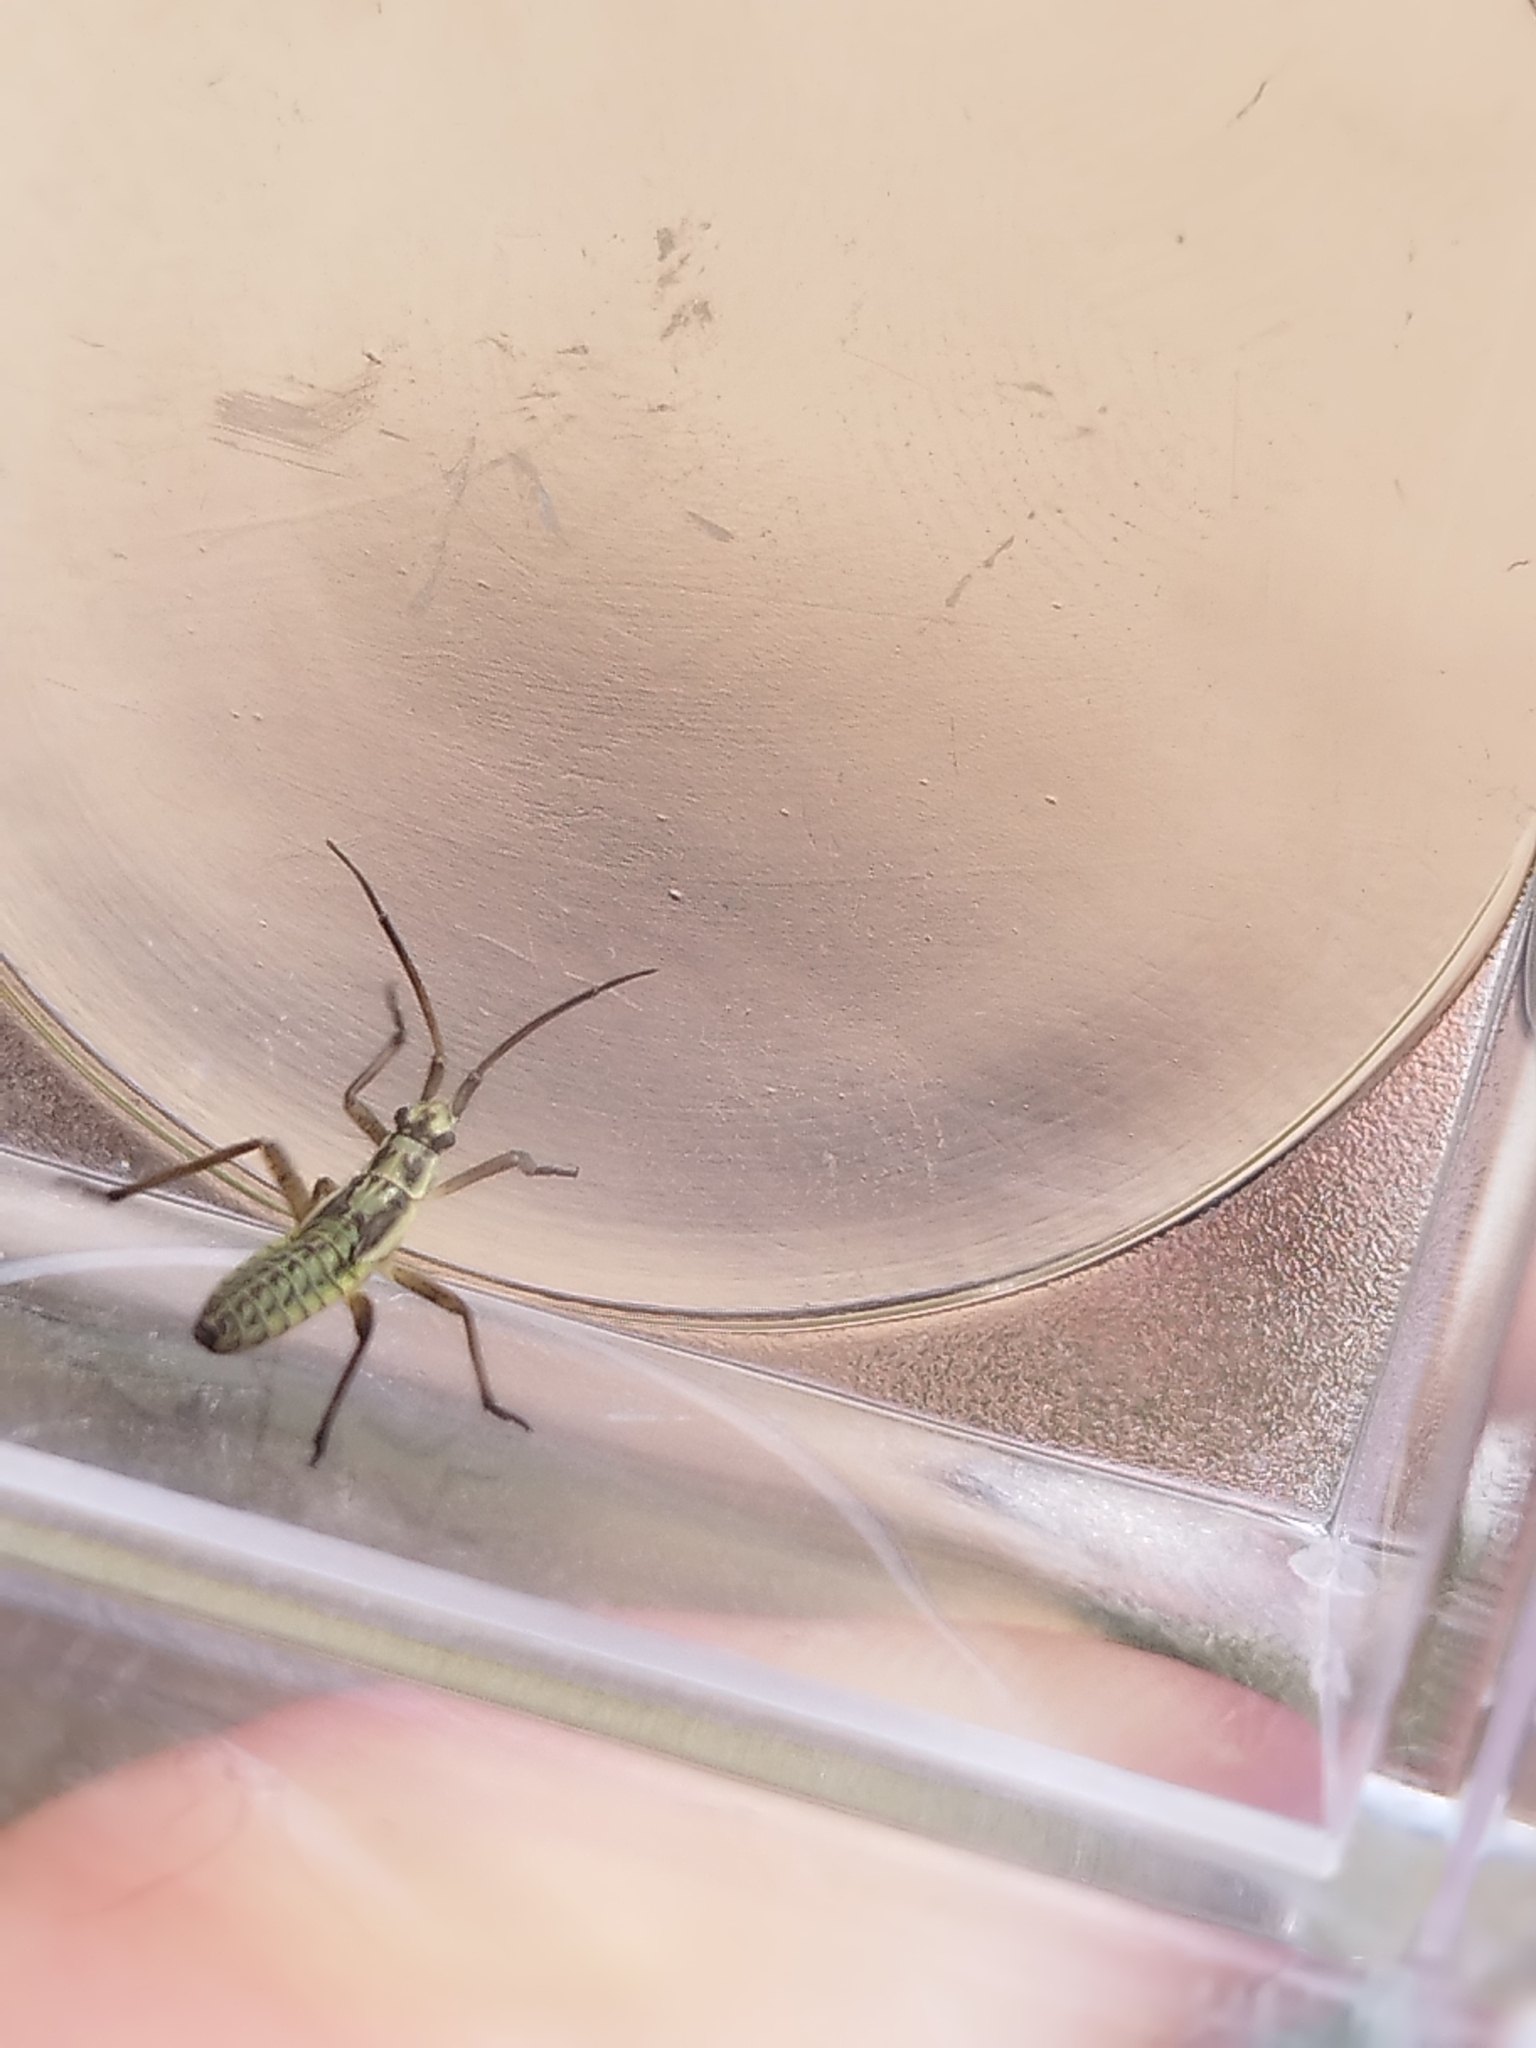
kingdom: Animalia
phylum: Arthropoda
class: Insecta
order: Hemiptera
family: Miridae
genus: Leptopterna
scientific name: Leptopterna dolabrata
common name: Meadow plant bug
